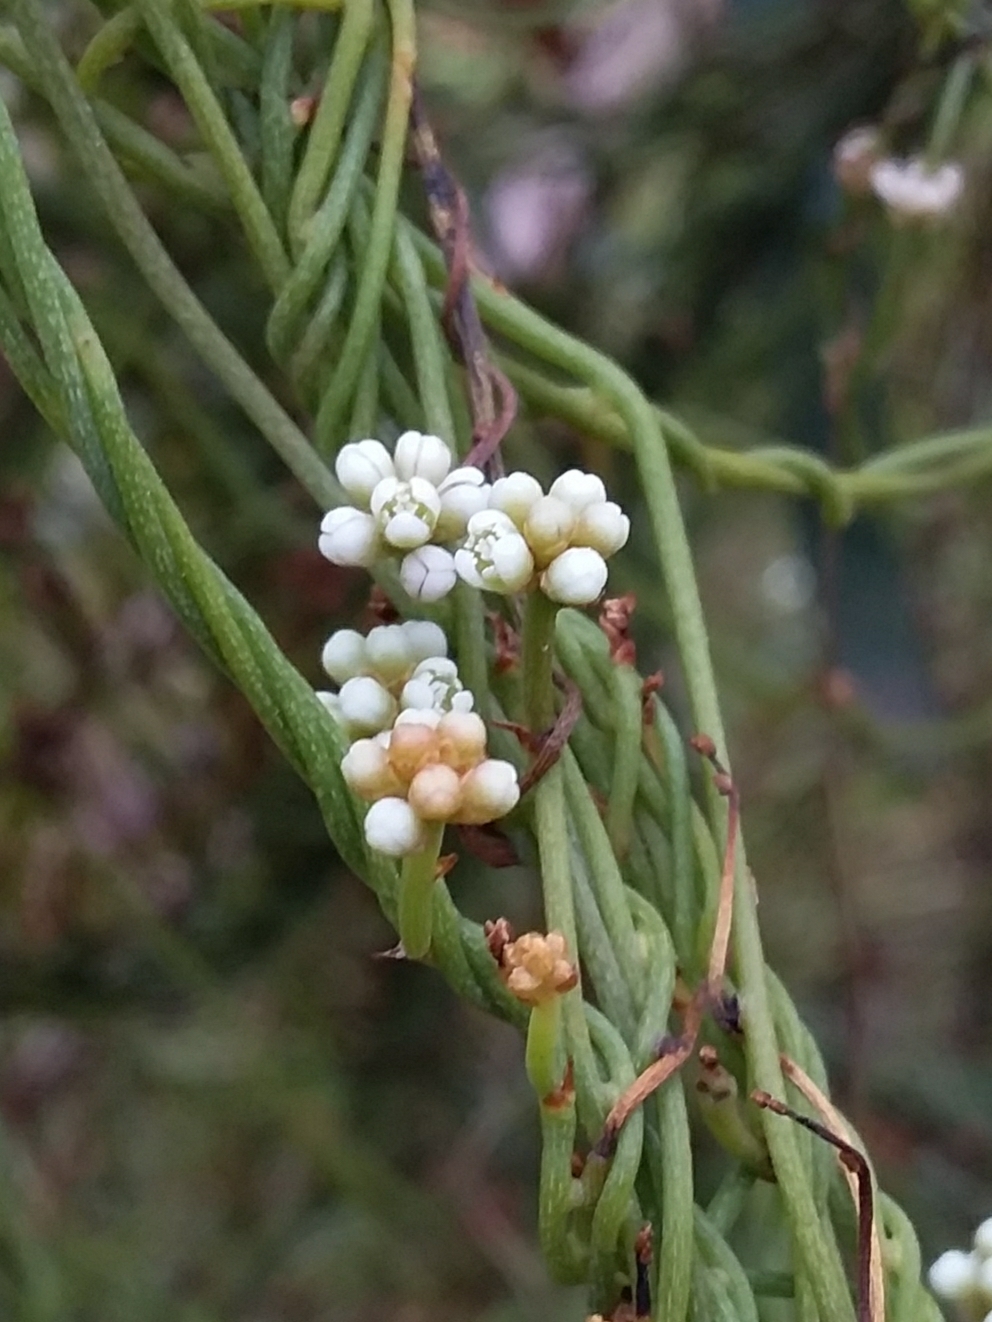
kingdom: Plantae
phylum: Tracheophyta
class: Magnoliopsida
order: Laurales
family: Lauraceae
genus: Cassytha
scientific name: Cassytha glabella
